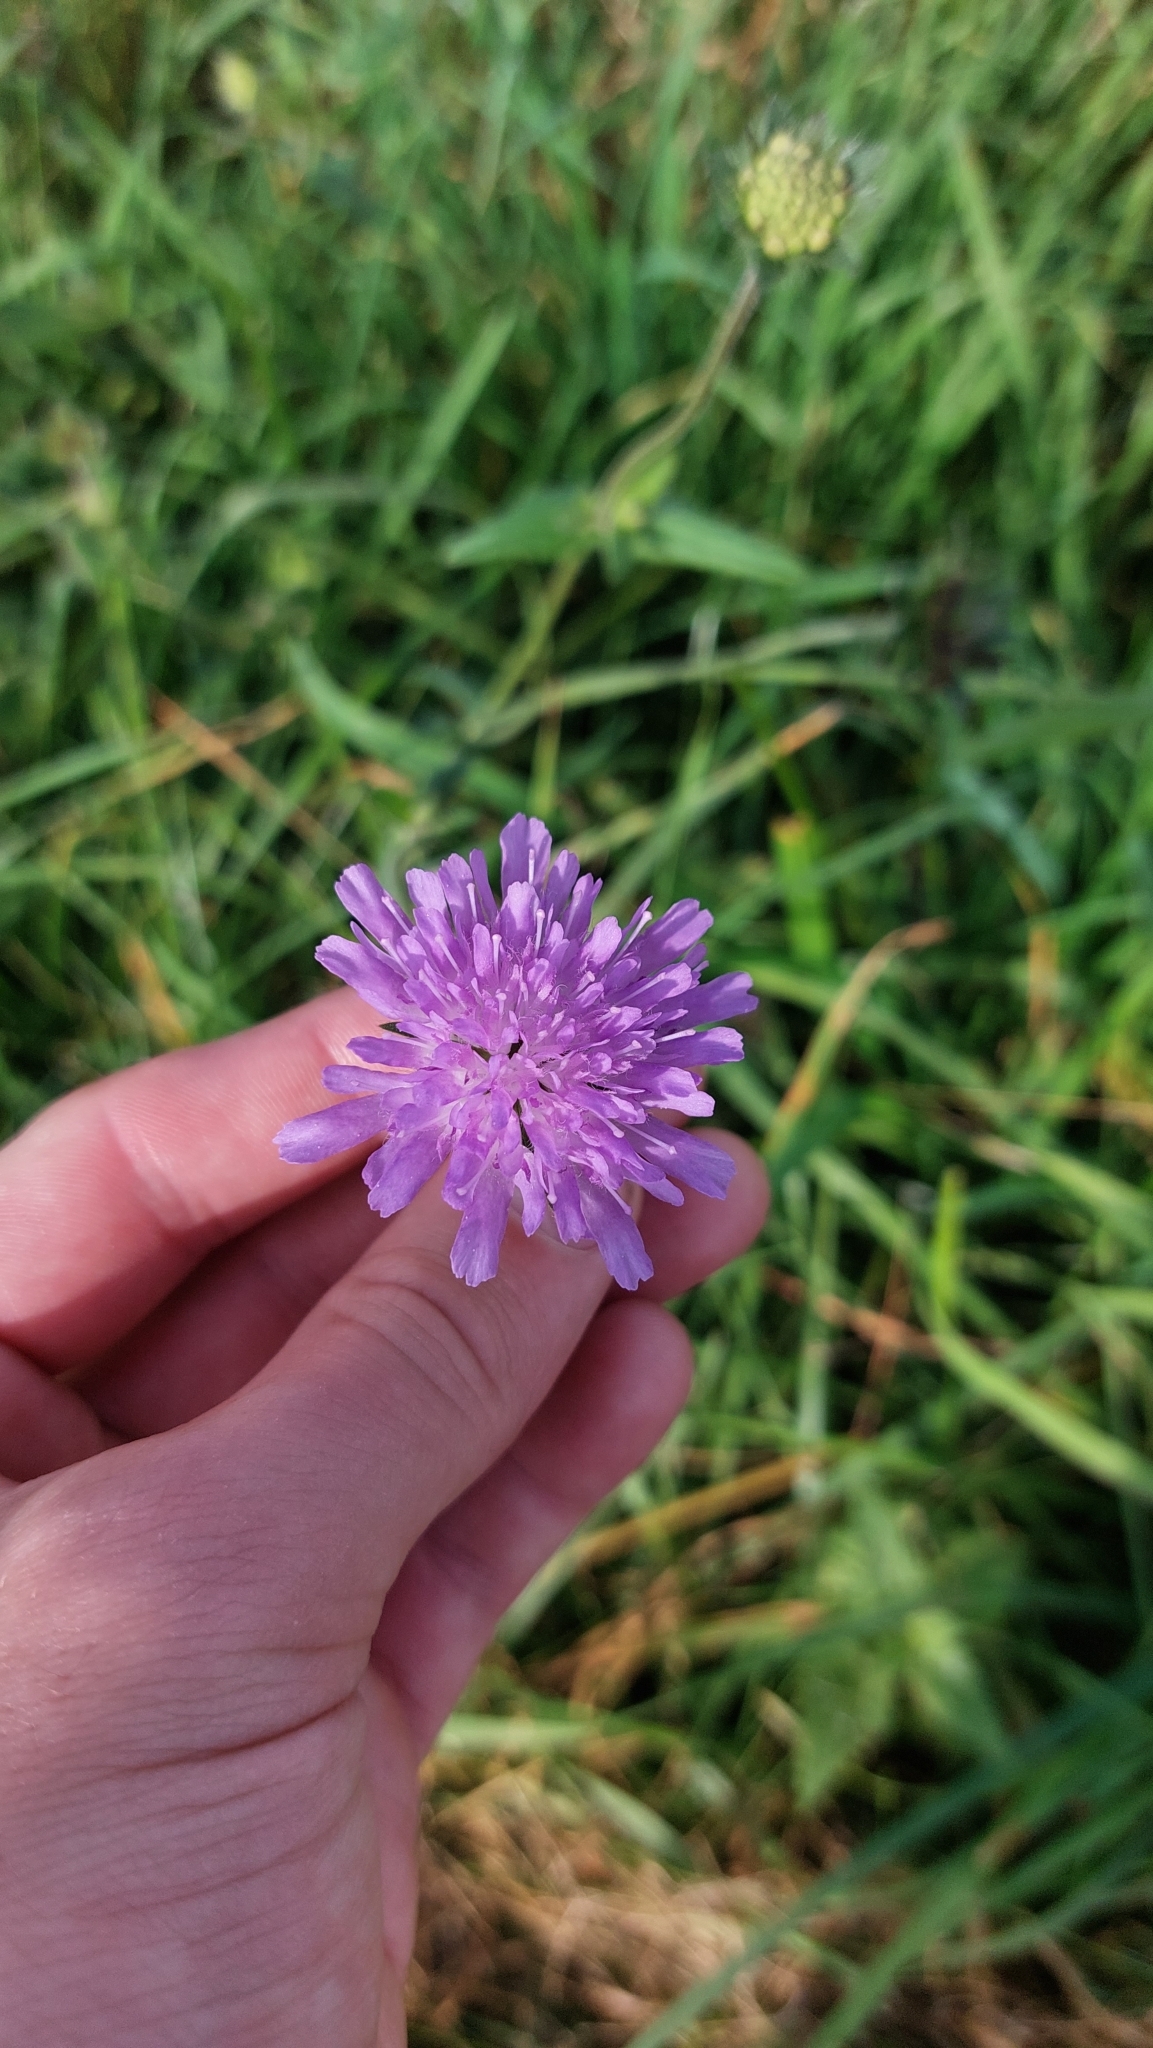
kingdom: Plantae
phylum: Tracheophyta
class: Magnoliopsida
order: Dipsacales
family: Caprifoliaceae
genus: Knautia
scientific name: Knautia arvensis
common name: Field scabiosa
